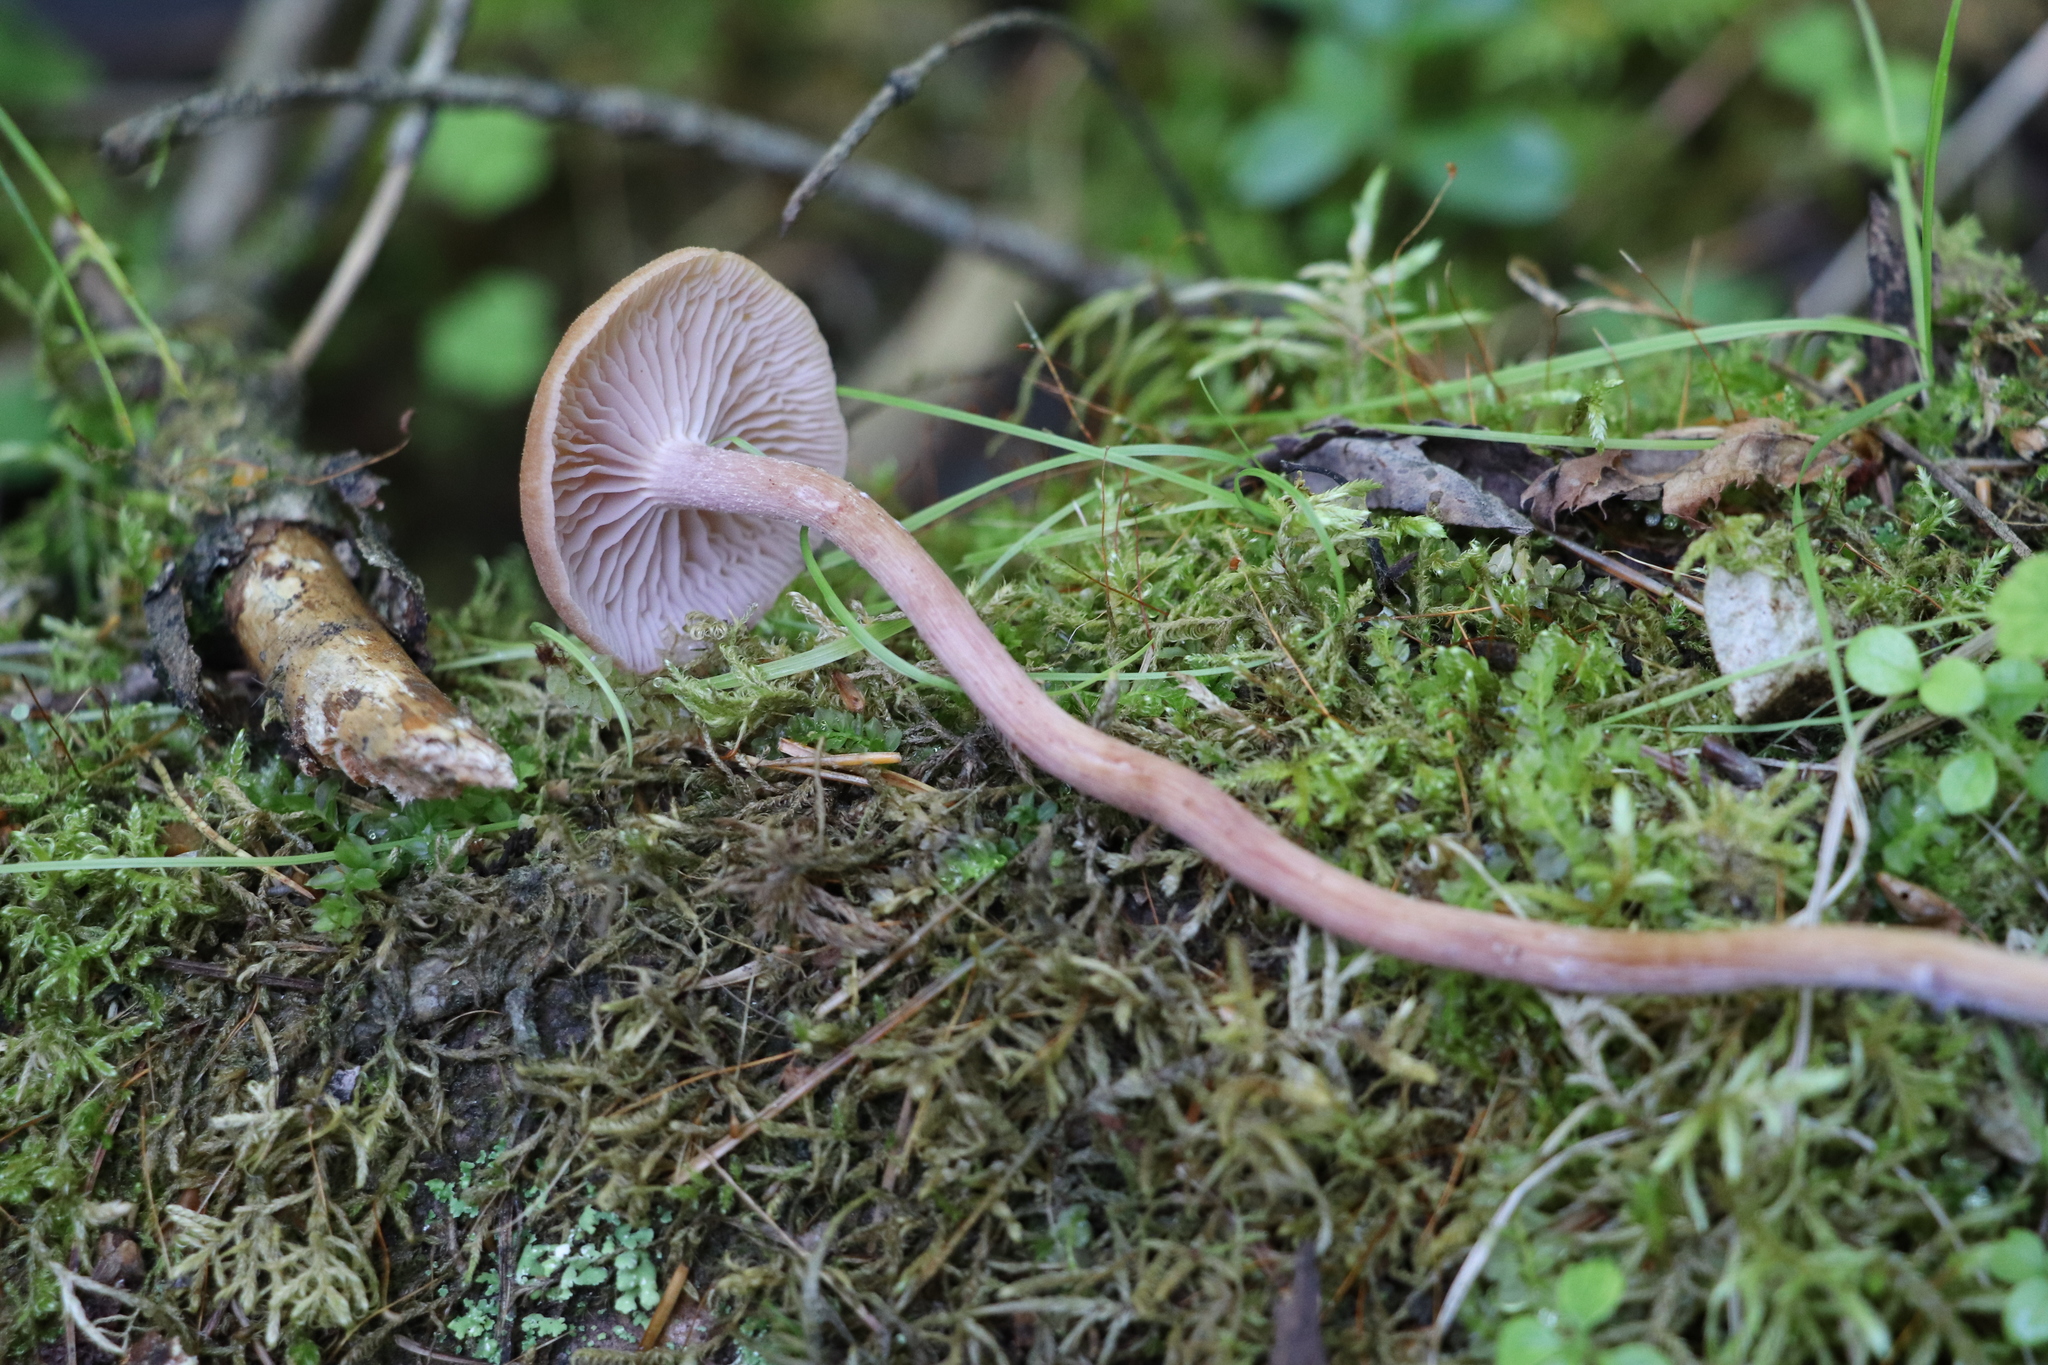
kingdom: Fungi
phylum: Basidiomycota
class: Agaricomycetes
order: Agaricales
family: Hydnangiaceae
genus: Laccaria
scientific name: Laccaria bicolor
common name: Bicoloured deceiver
